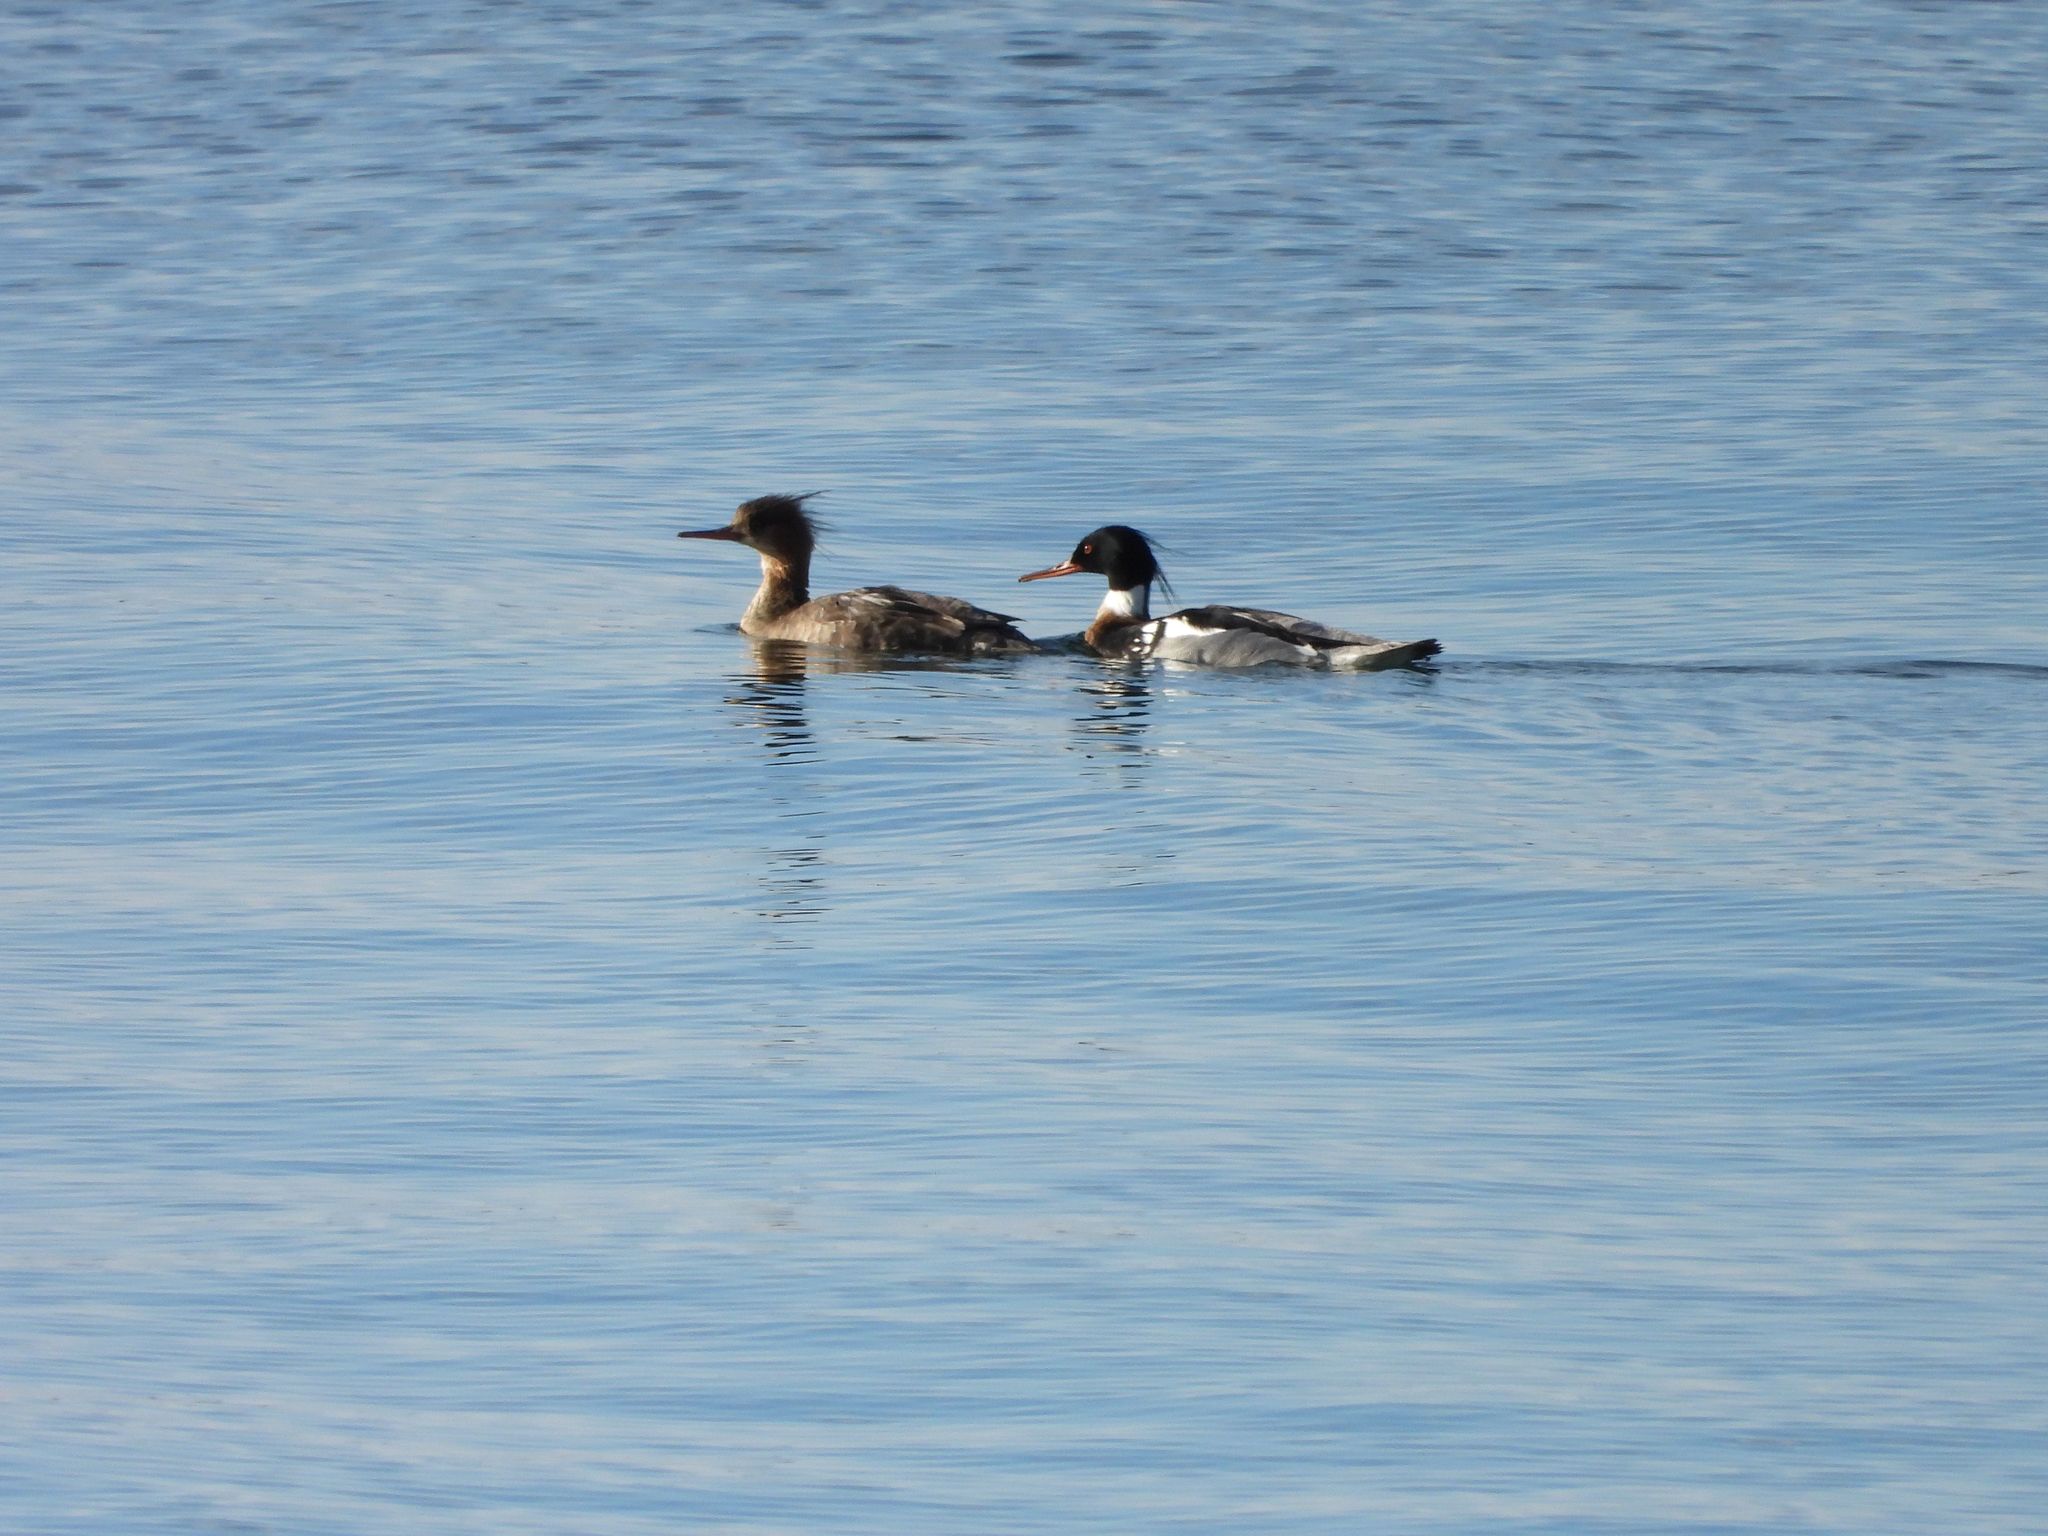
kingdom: Animalia
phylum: Chordata
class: Aves
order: Anseriformes
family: Anatidae
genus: Mergus
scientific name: Mergus serrator
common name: Red-breasted merganser
